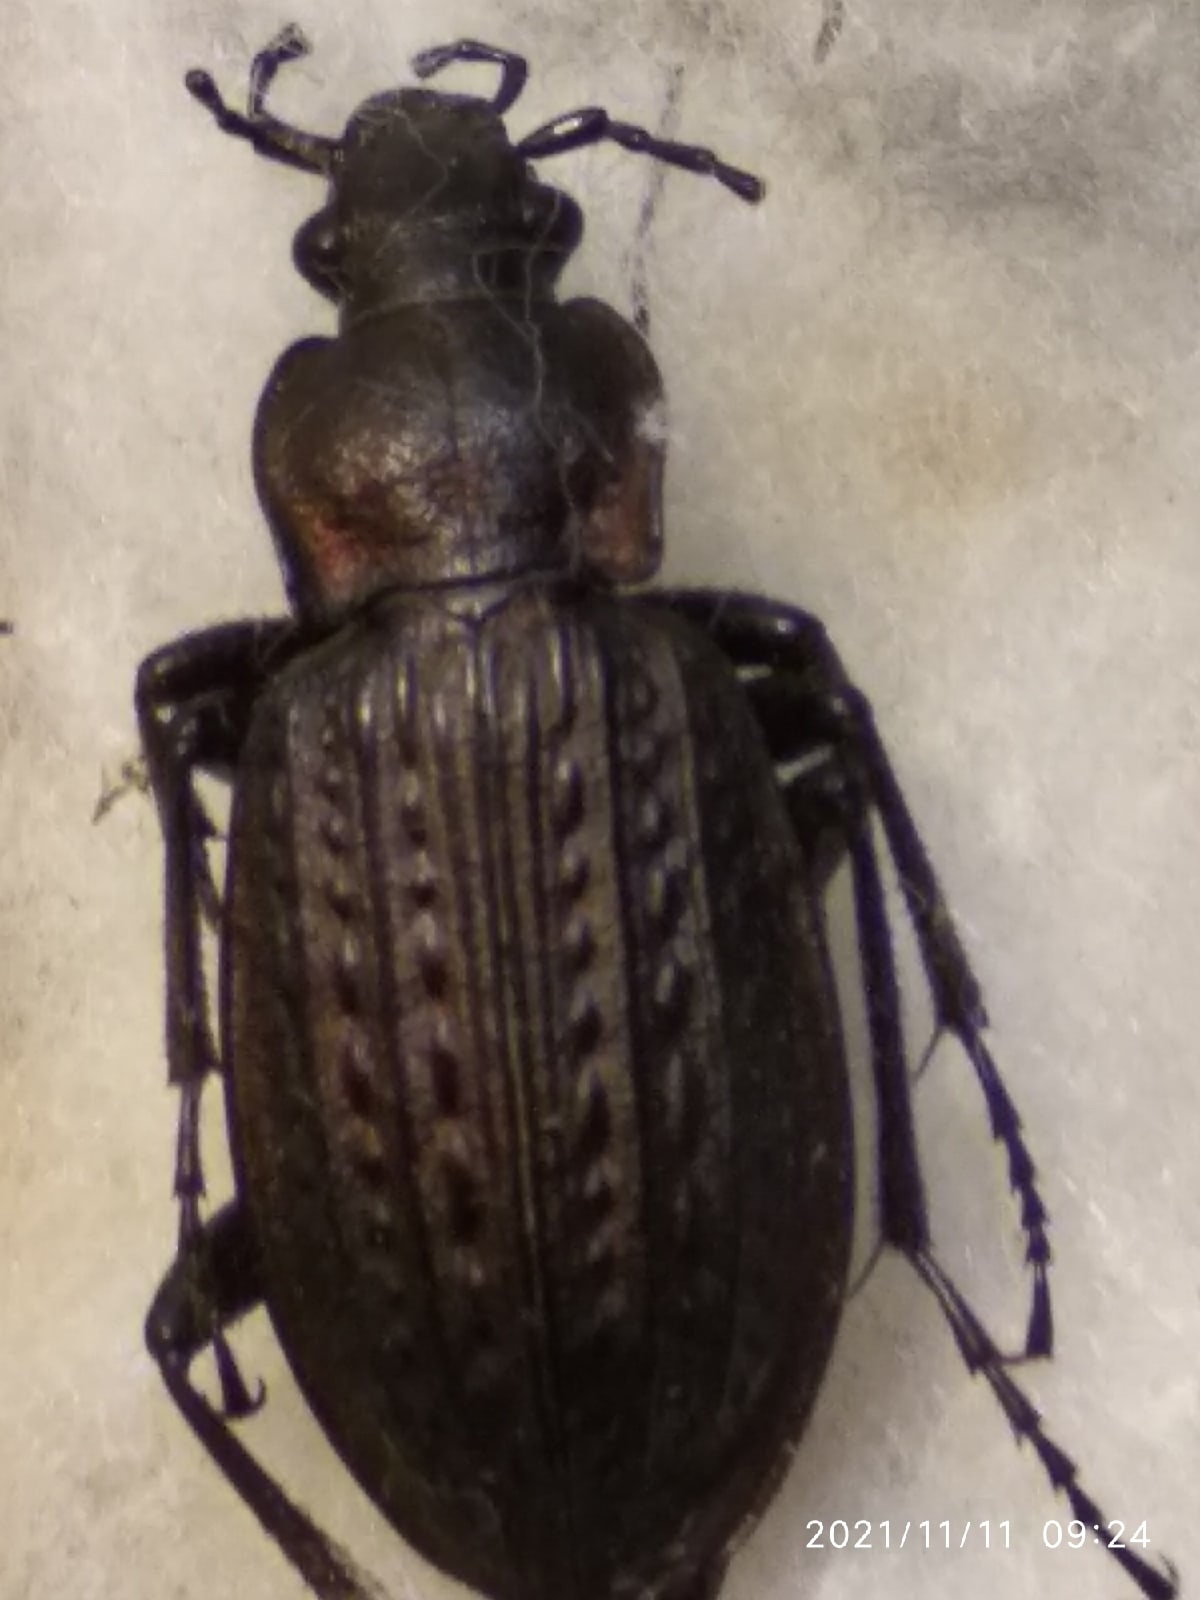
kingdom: Animalia
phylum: Arthropoda
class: Insecta
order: Coleoptera
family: Carabidae
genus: Carabus
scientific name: Carabus granulatus
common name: Granulate ground beetle
